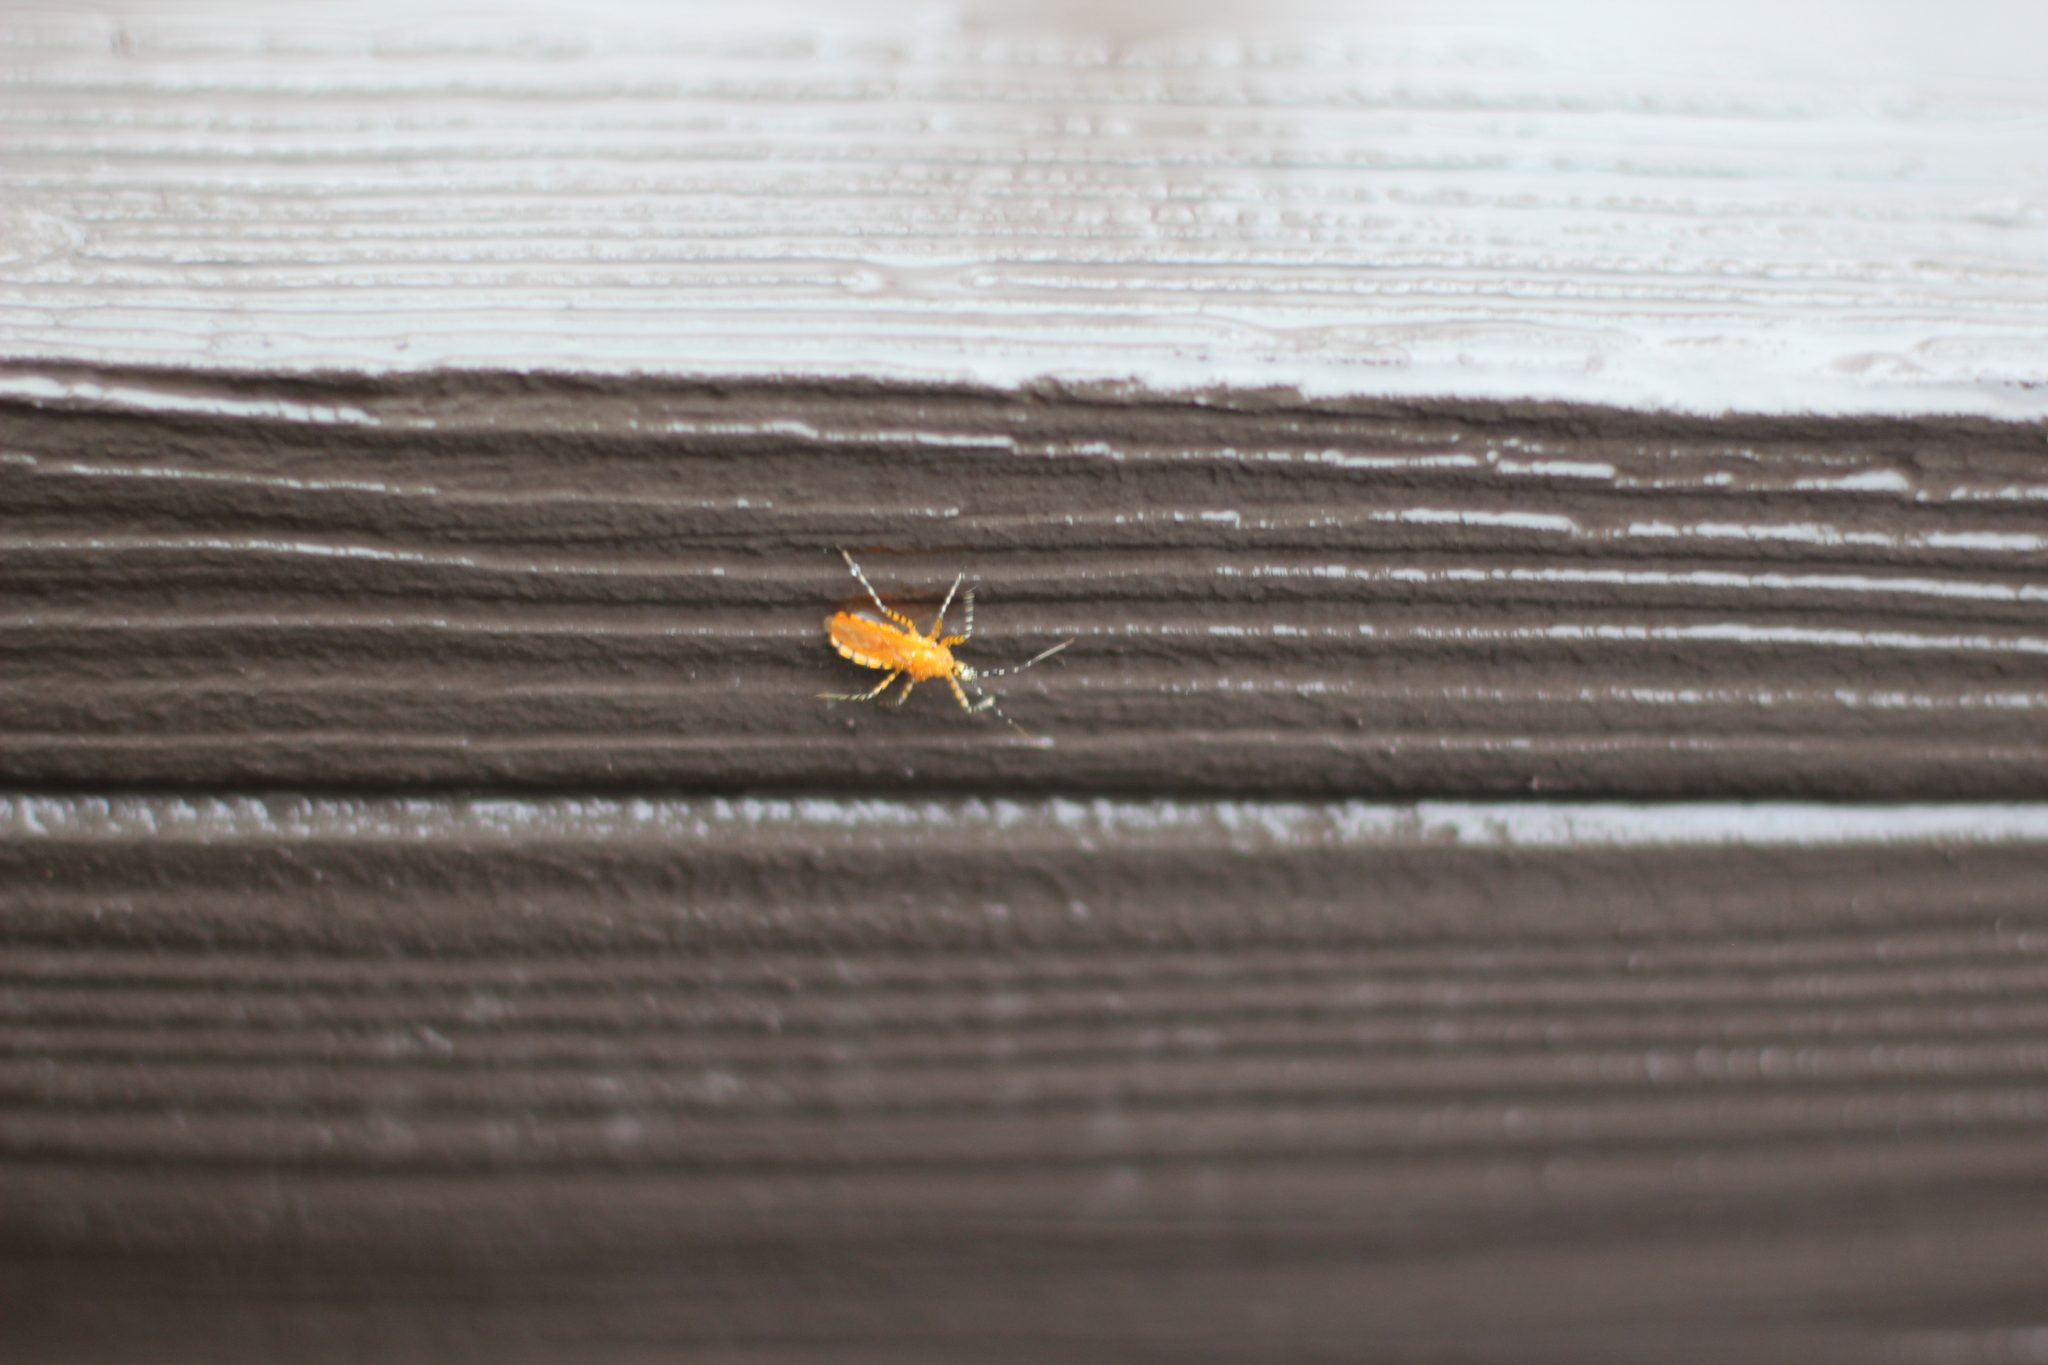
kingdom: Animalia
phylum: Arthropoda
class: Insecta
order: Hemiptera
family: Reduviidae
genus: Pselliopus
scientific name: Pselliopus barberi
